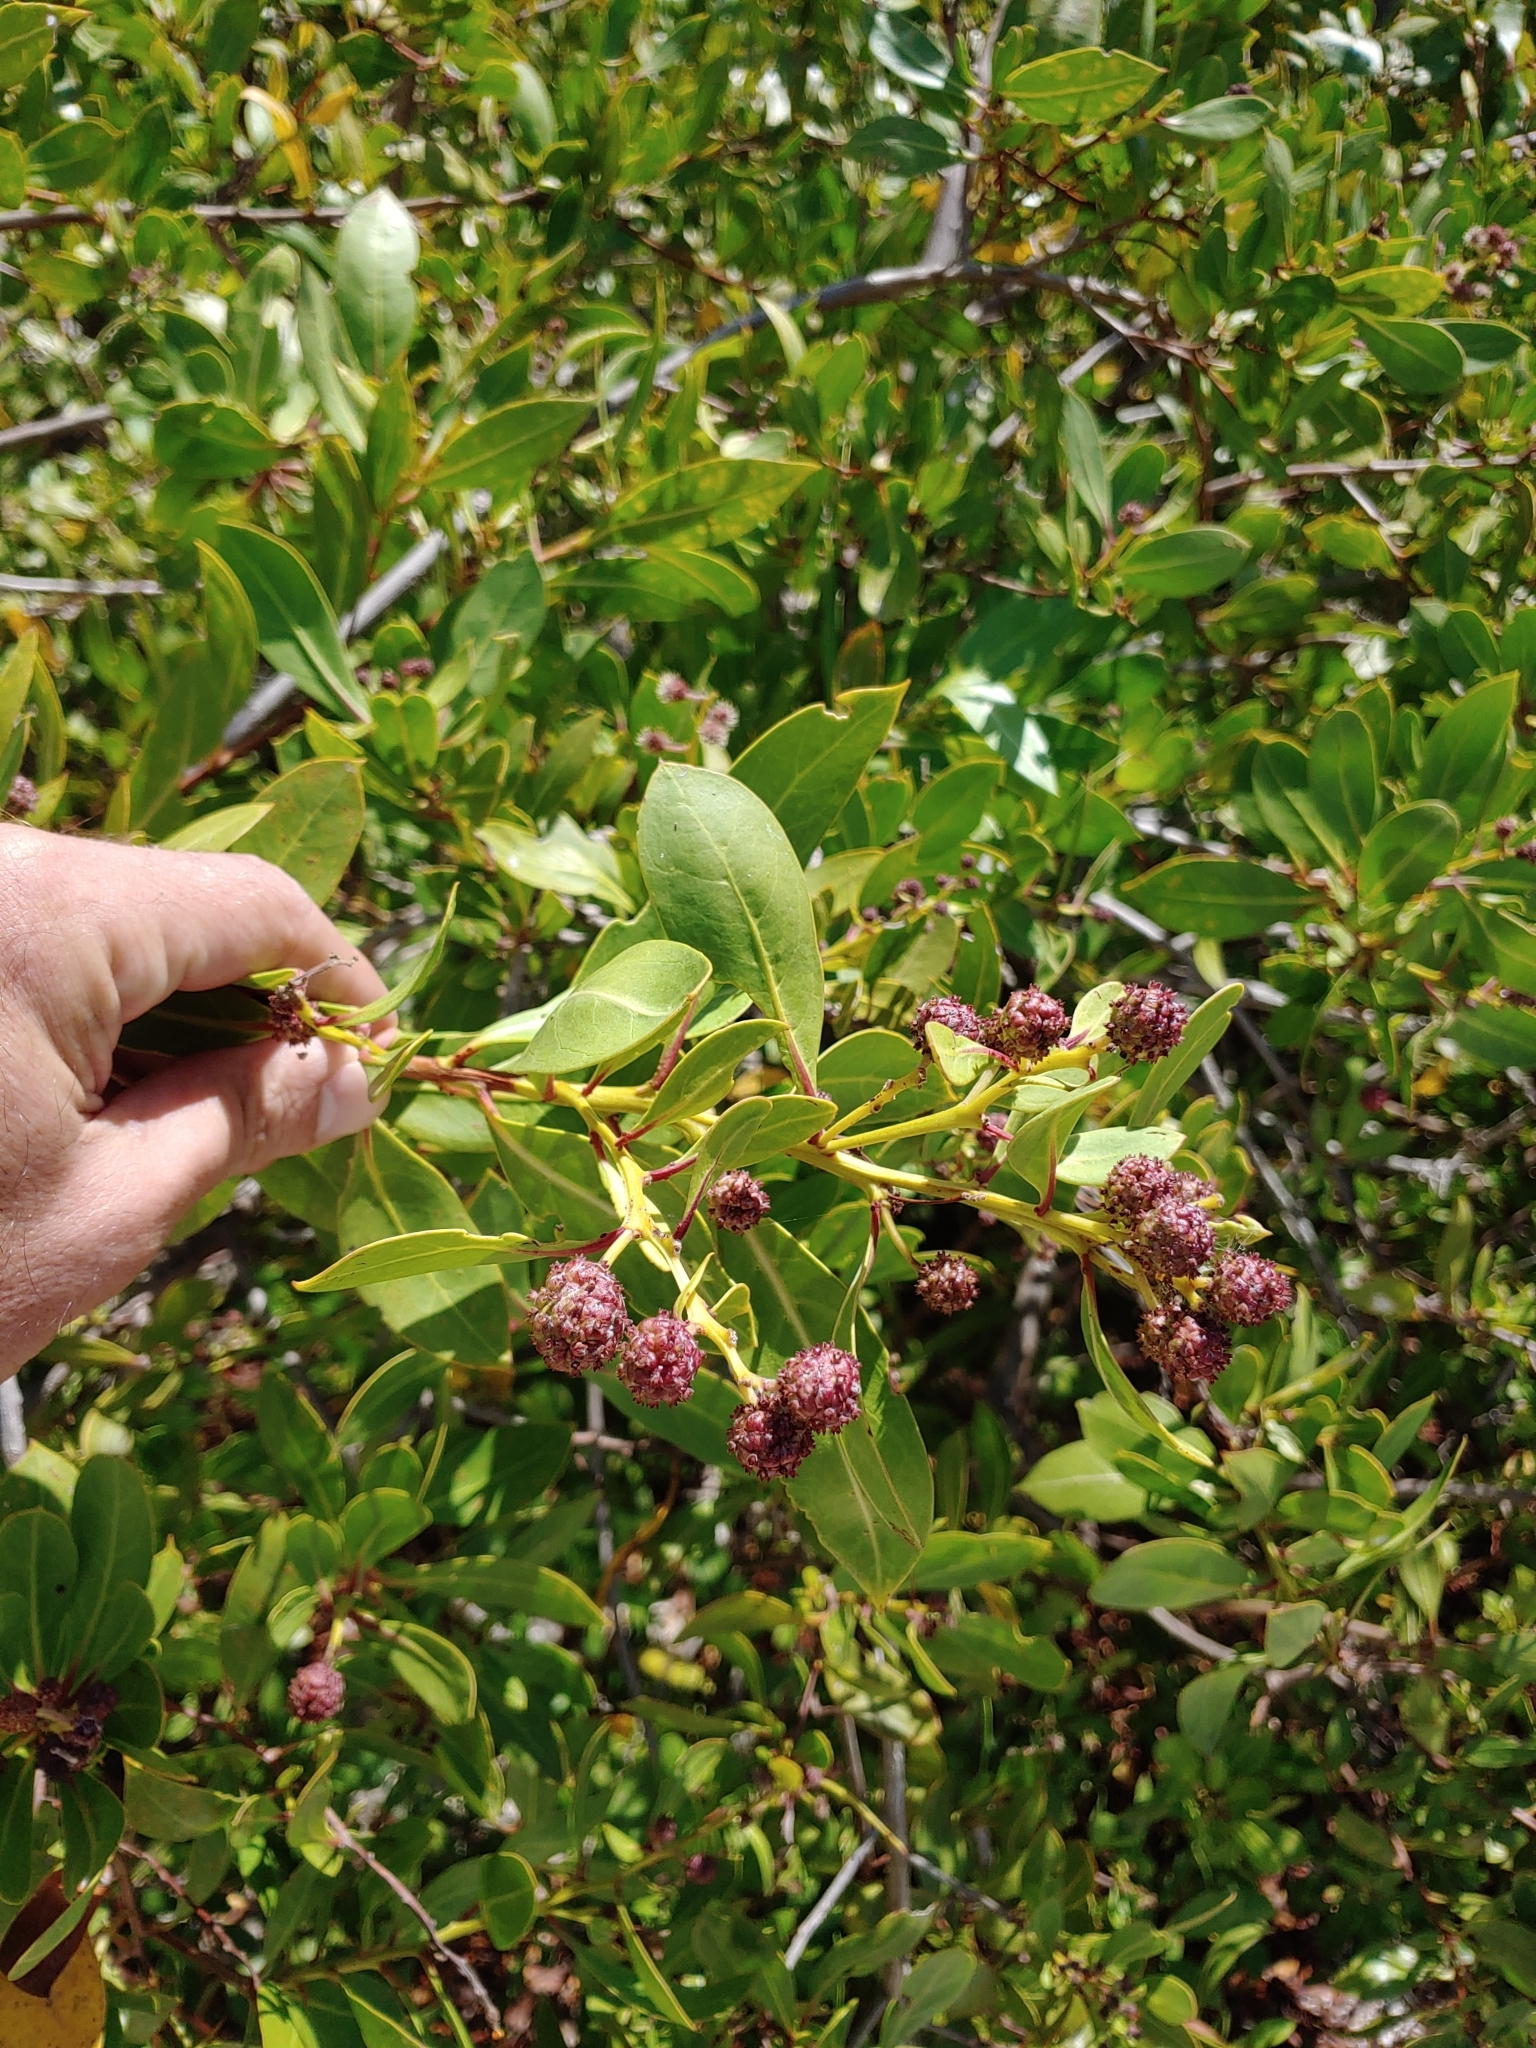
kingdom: Plantae
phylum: Tracheophyta
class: Magnoliopsida
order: Myrtales
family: Combretaceae
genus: Conocarpus
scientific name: Conocarpus erectus
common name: Button mangrove
